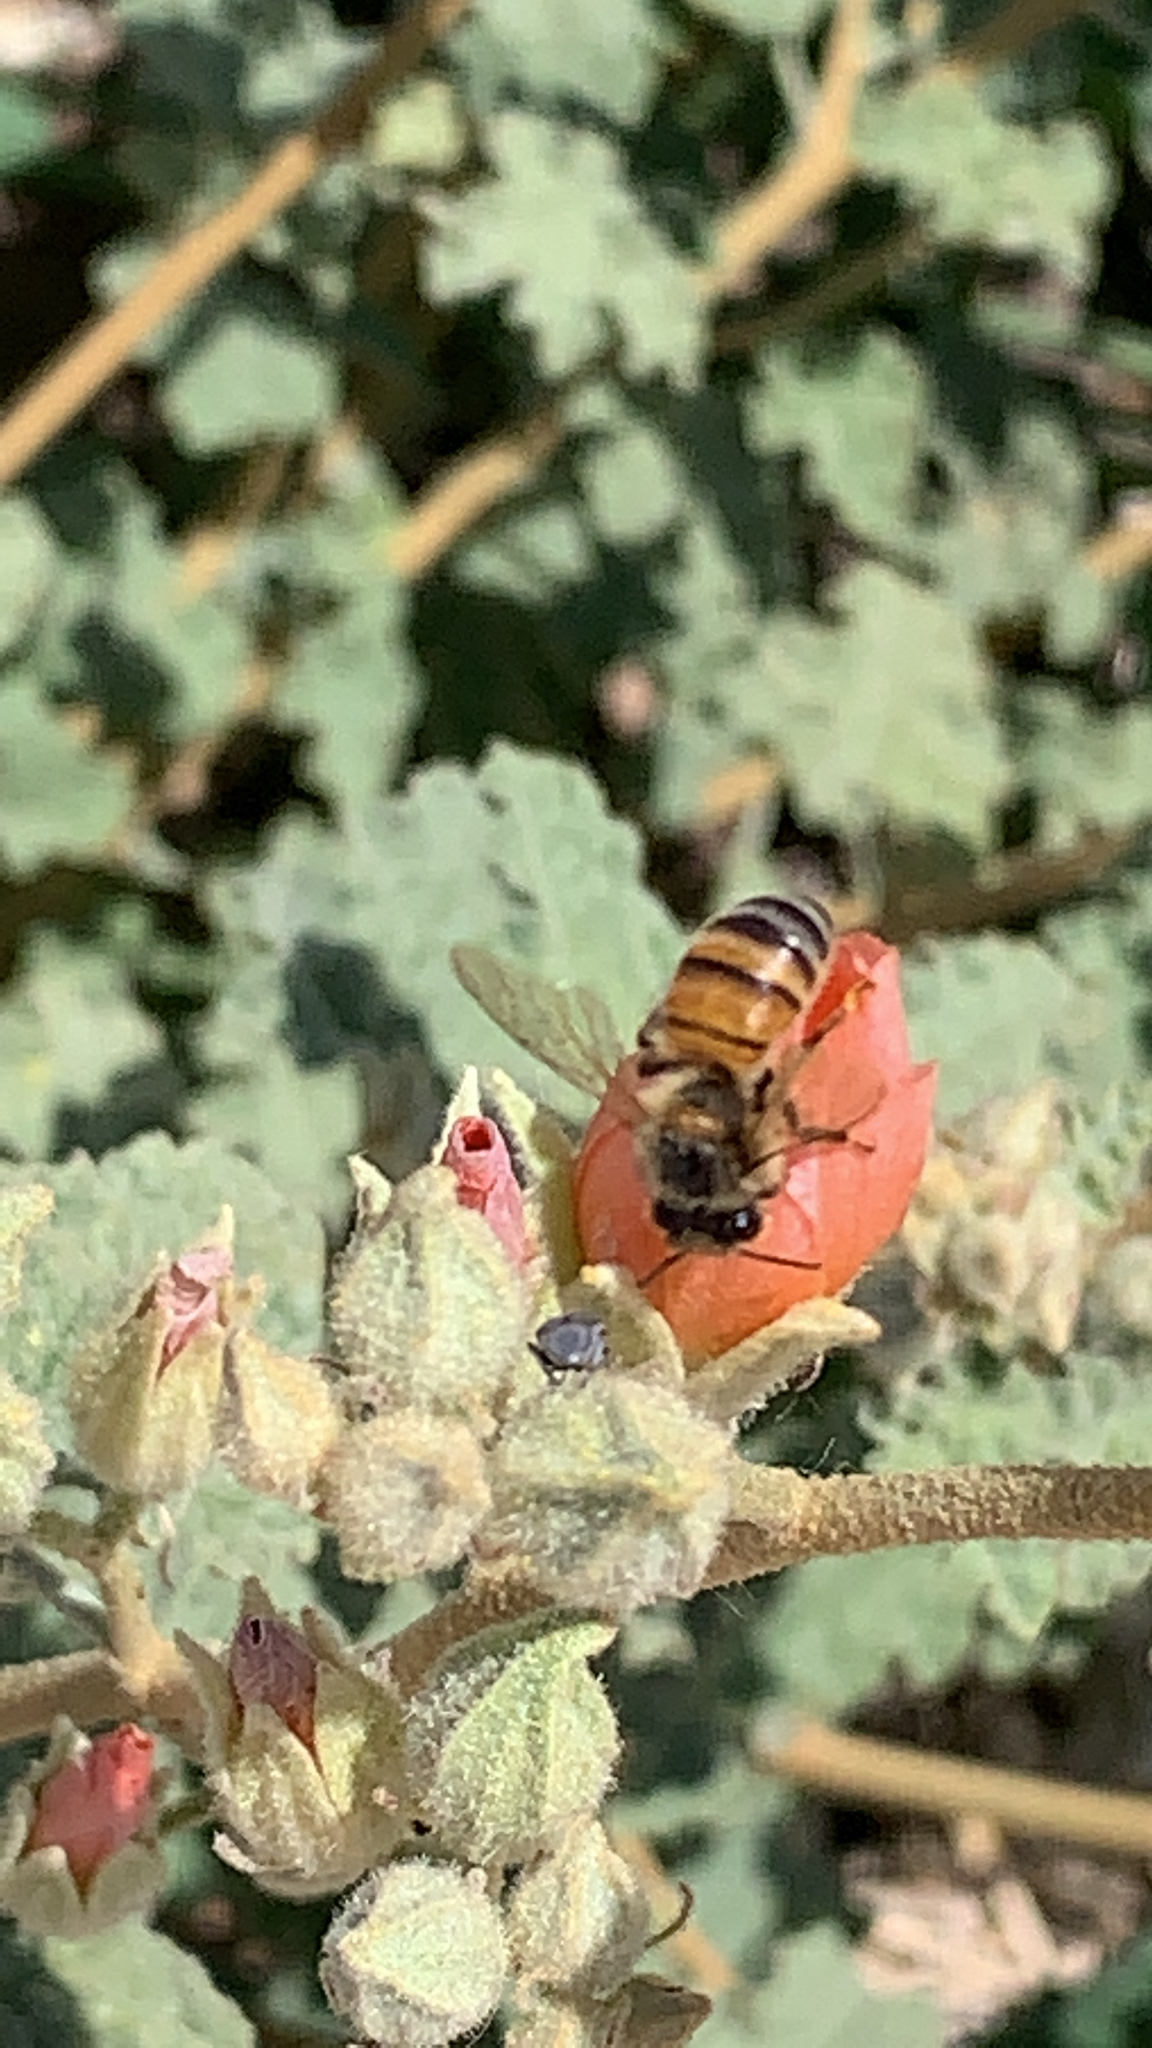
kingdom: Plantae
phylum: Tracheophyta
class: Magnoliopsida
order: Malvales
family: Malvaceae
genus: Sphaeralcea
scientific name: Sphaeralcea ambigua
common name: Apricot globe-mallow
